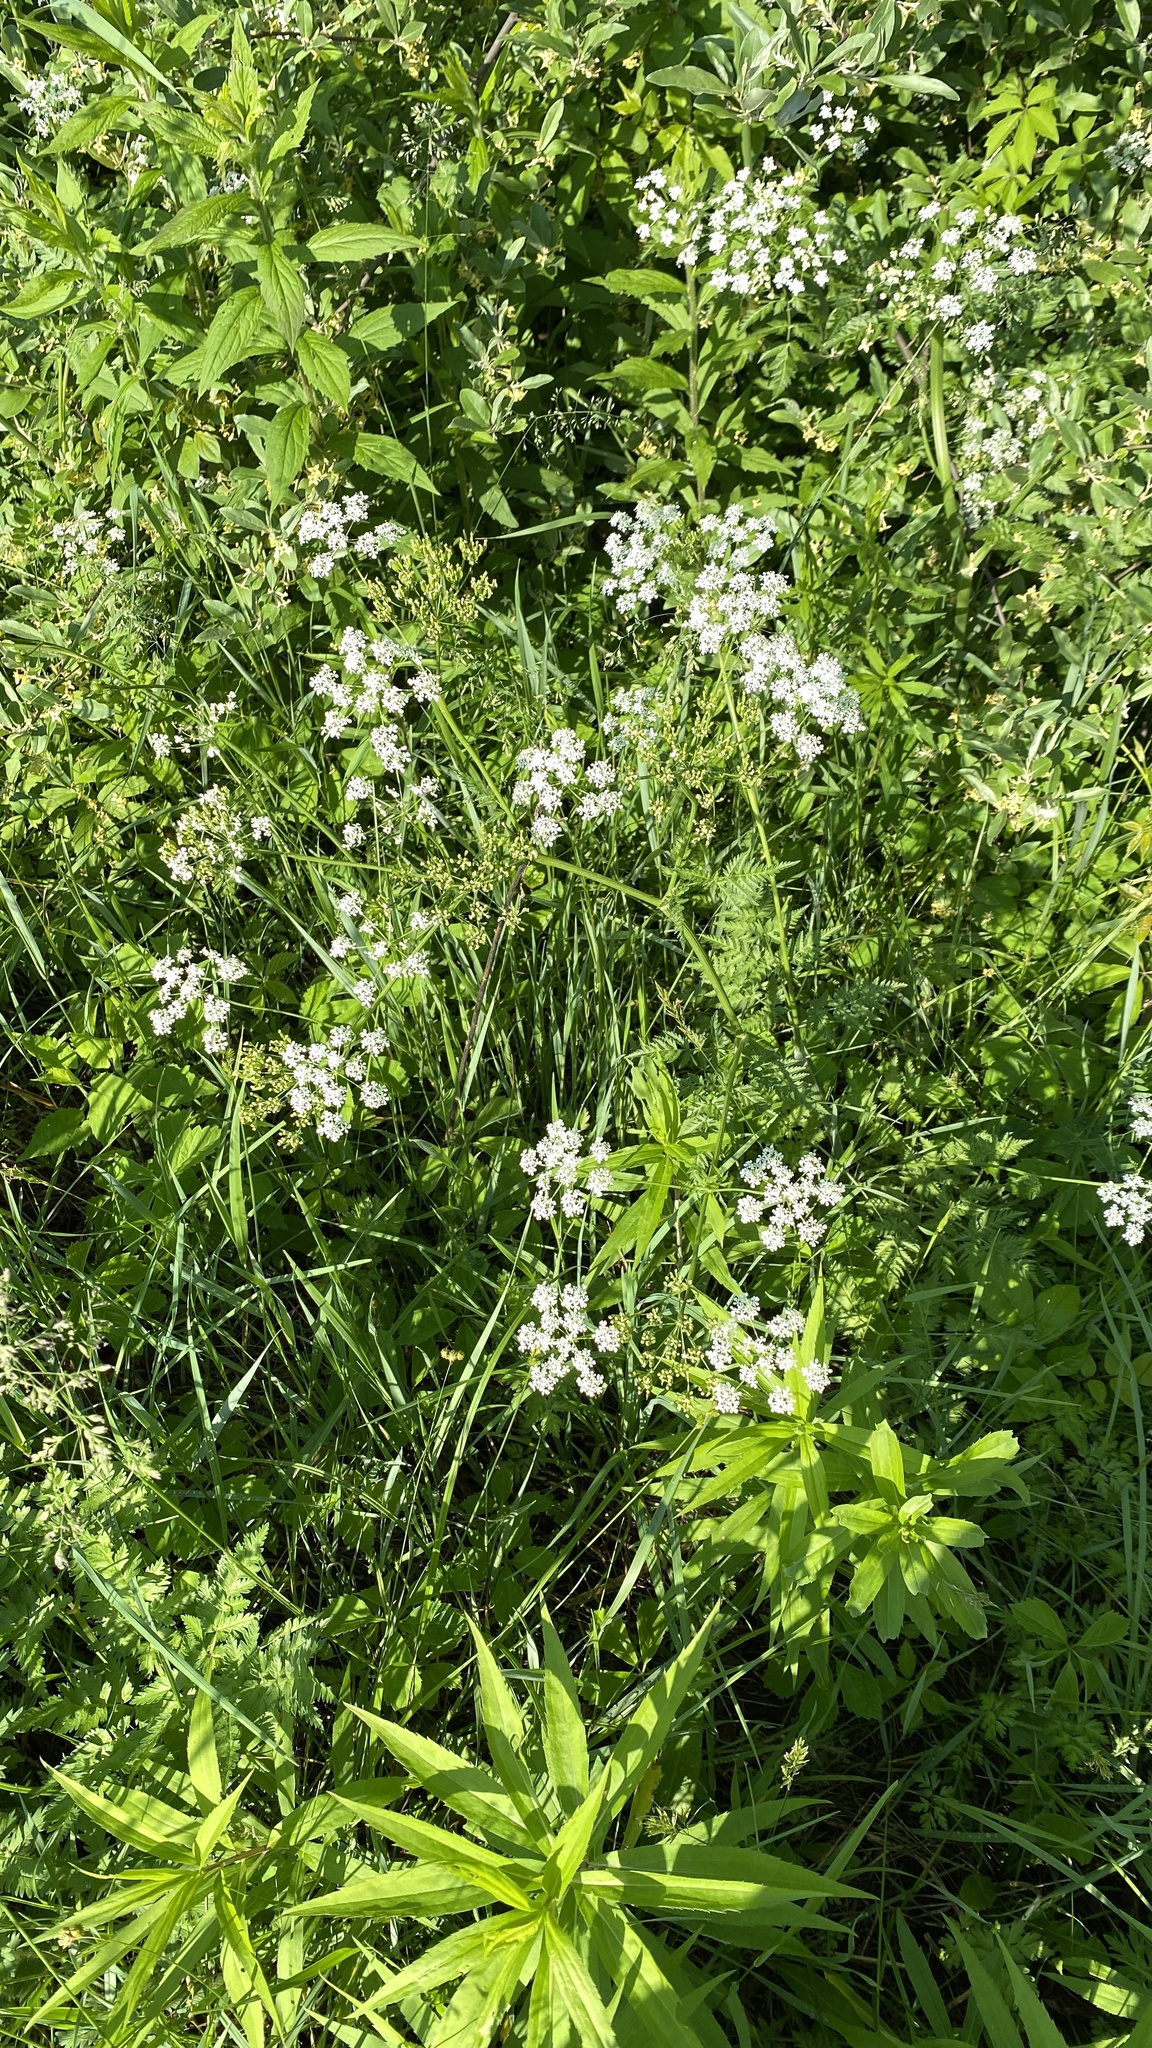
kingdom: Plantae
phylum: Tracheophyta
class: Magnoliopsida
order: Apiales
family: Apiaceae
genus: Anthriscus
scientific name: Anthriscus sylvestris
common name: Cow parsley
